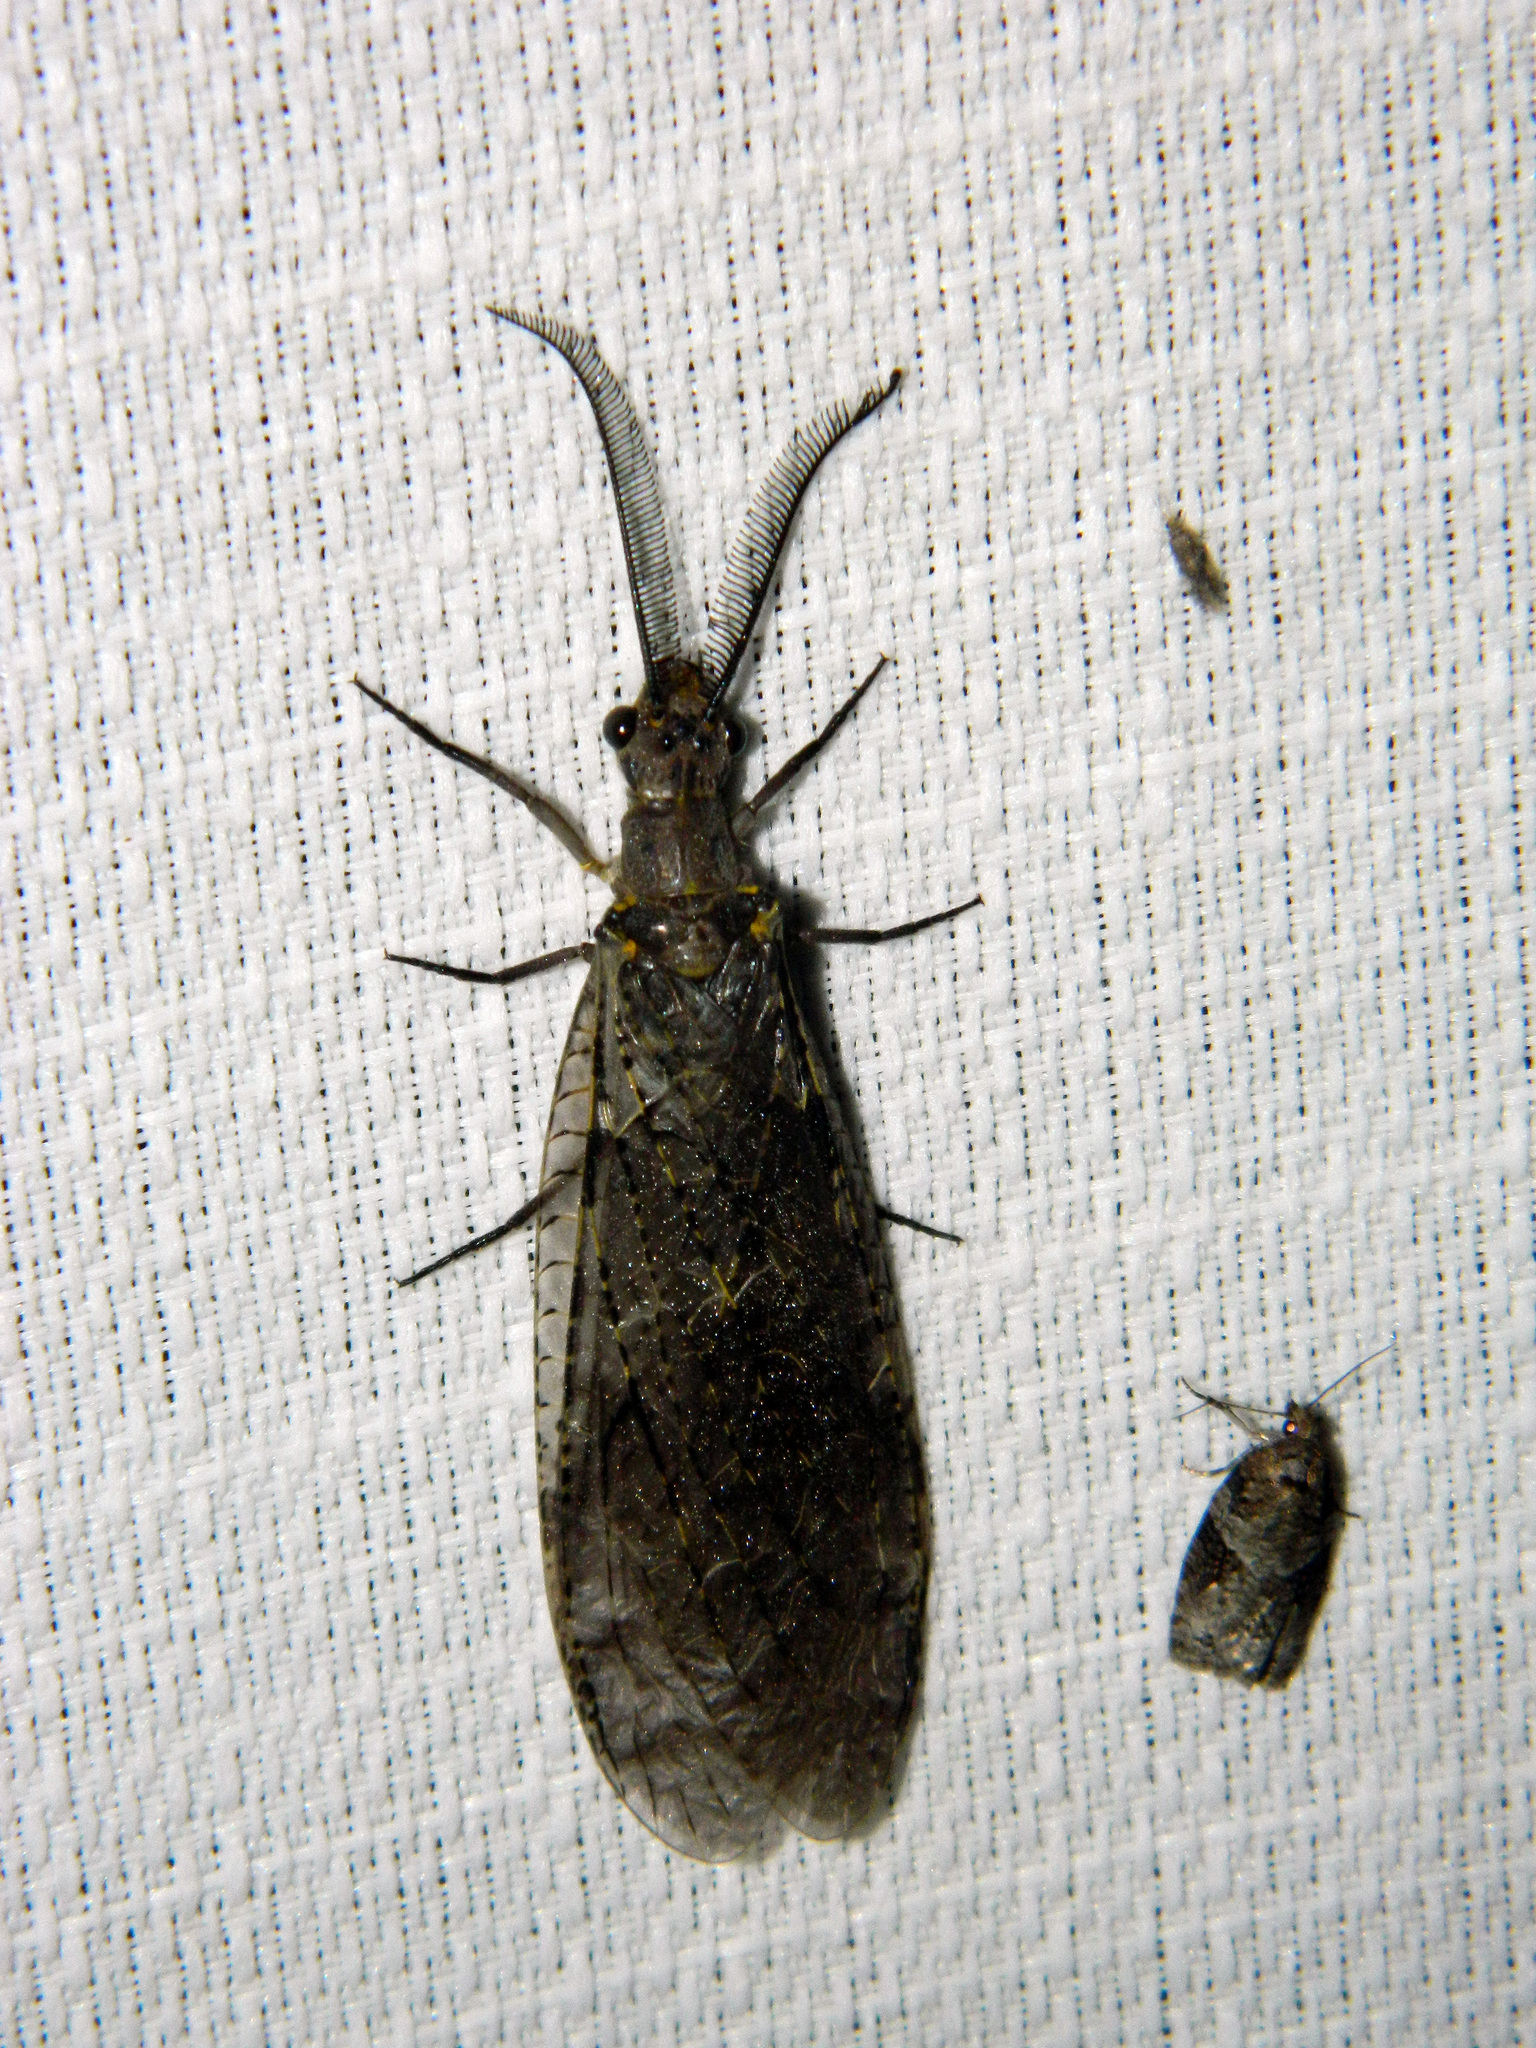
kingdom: Animalia
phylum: Arthropoda
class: Insecta
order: Megaloptera
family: Corydalidae
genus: Chauliodes
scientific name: Chauliodes rastricornis
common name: Spring fishfly
